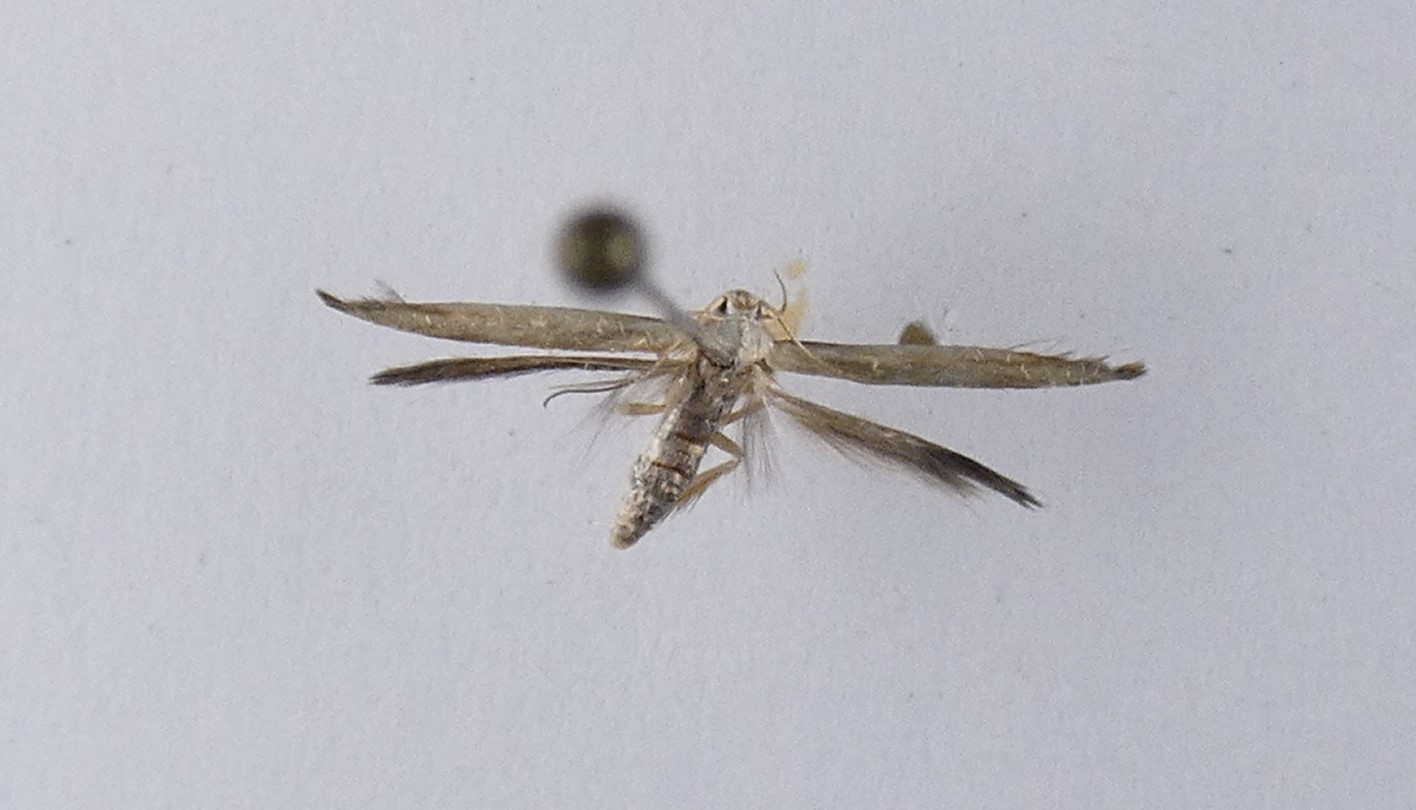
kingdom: Animalia
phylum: Arthropoda
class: Insecta
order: Lepidoptera
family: Stathmopodidae
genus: Stathmopoda
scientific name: Stathmopoda horticola
